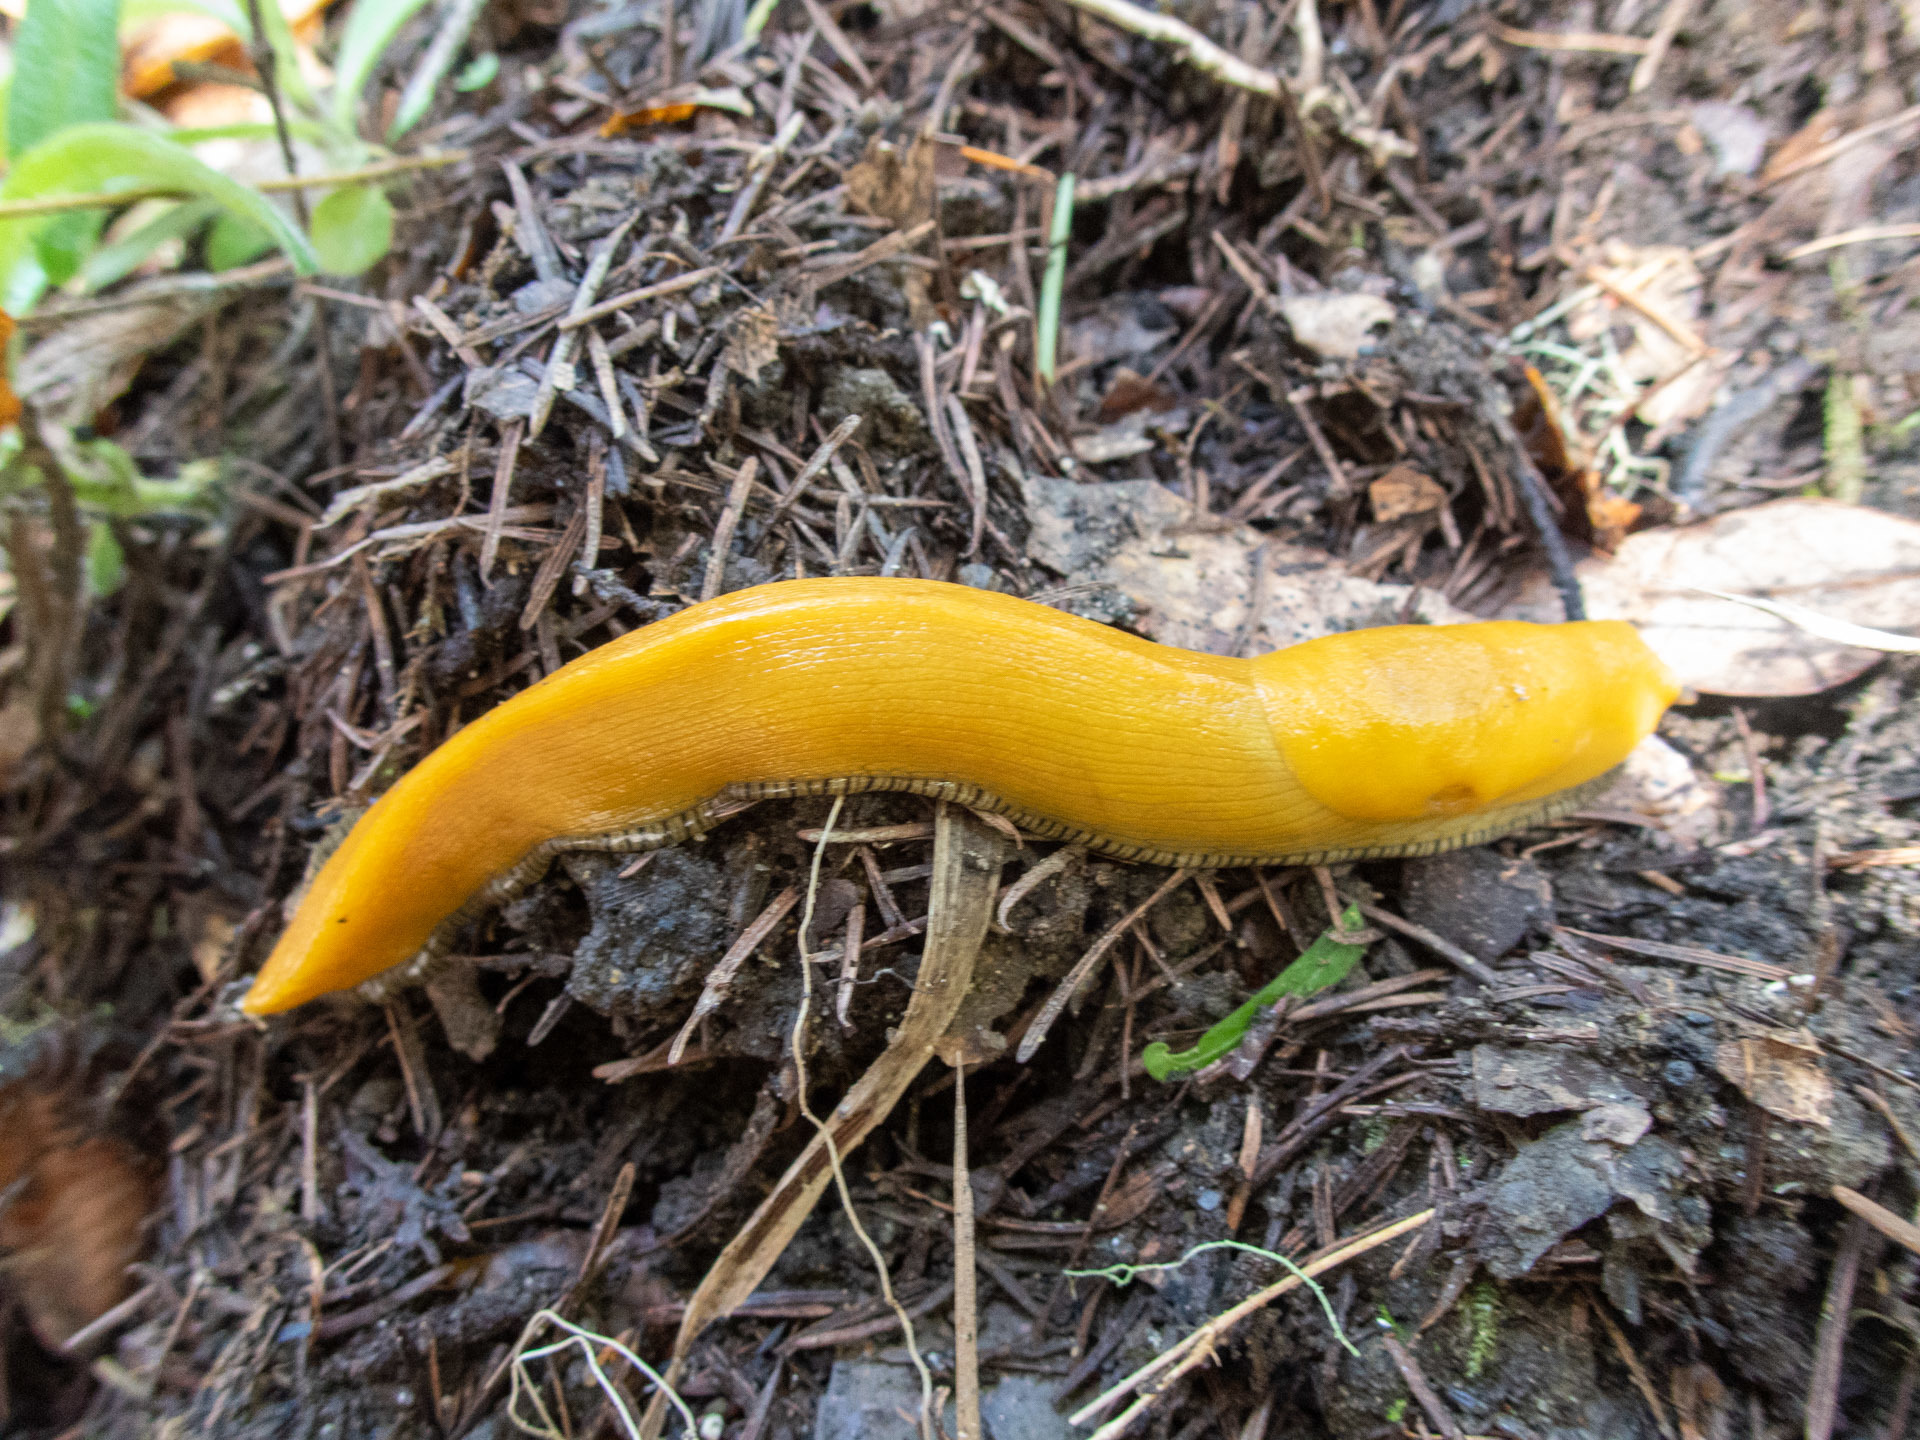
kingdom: Animalia
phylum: Mollusca
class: Gastropoda
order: Stylommatophora
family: Ariolimacidae
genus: Ariolimax
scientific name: Ariolimax dolichophallus
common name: Slender banana slug
